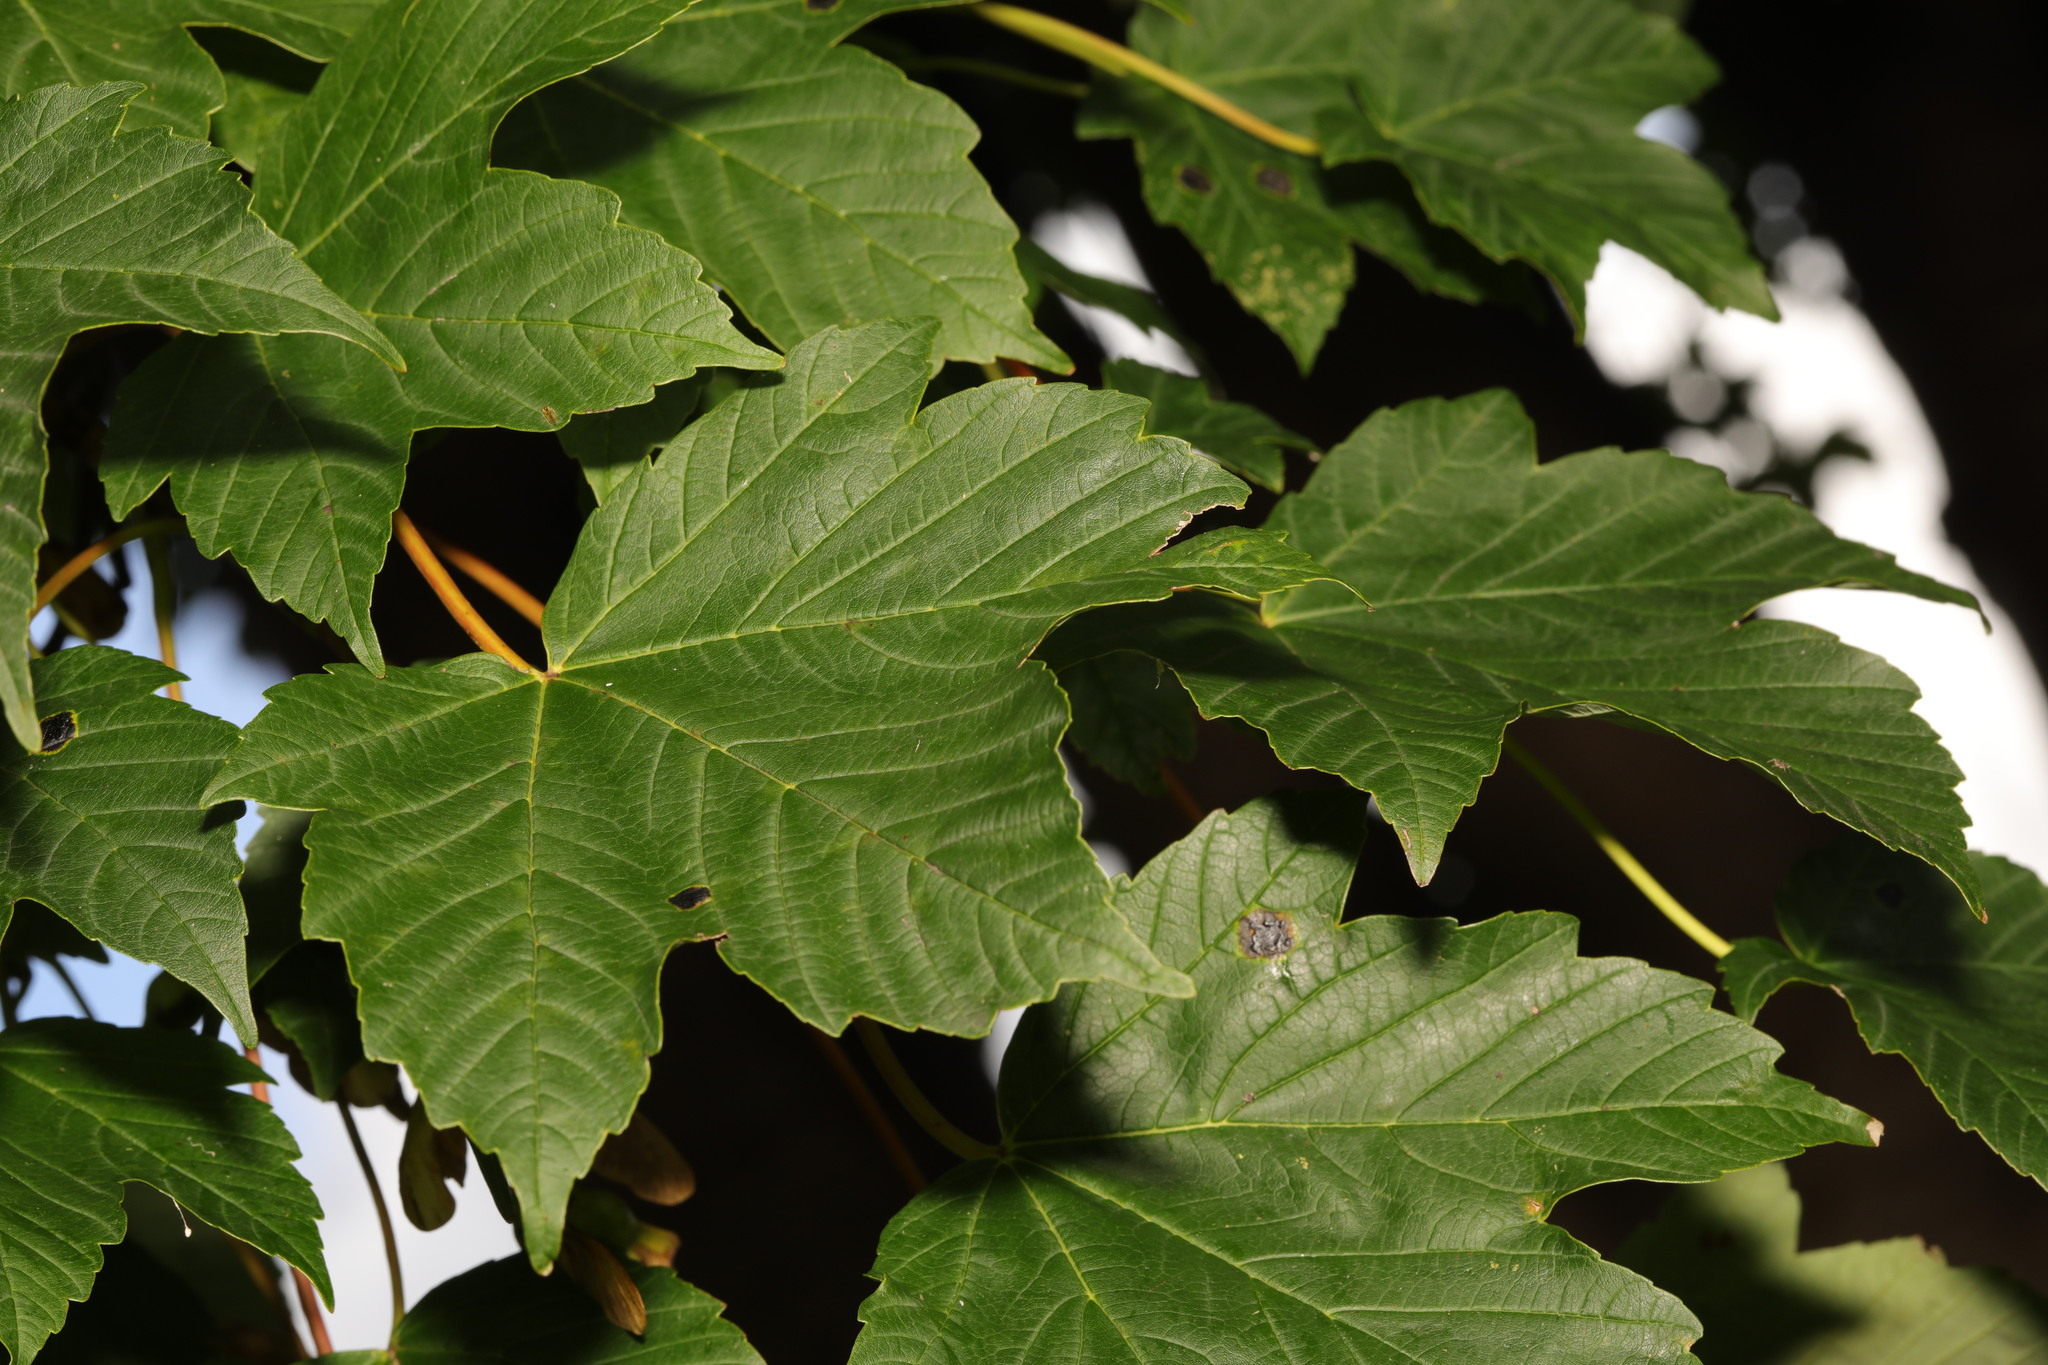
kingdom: Plantae
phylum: Tracheophyta
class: Magnoliopsida
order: Sapindales
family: Sapindaceae
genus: Acer
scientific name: Acer pseudoplatanus
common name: Sycamore
